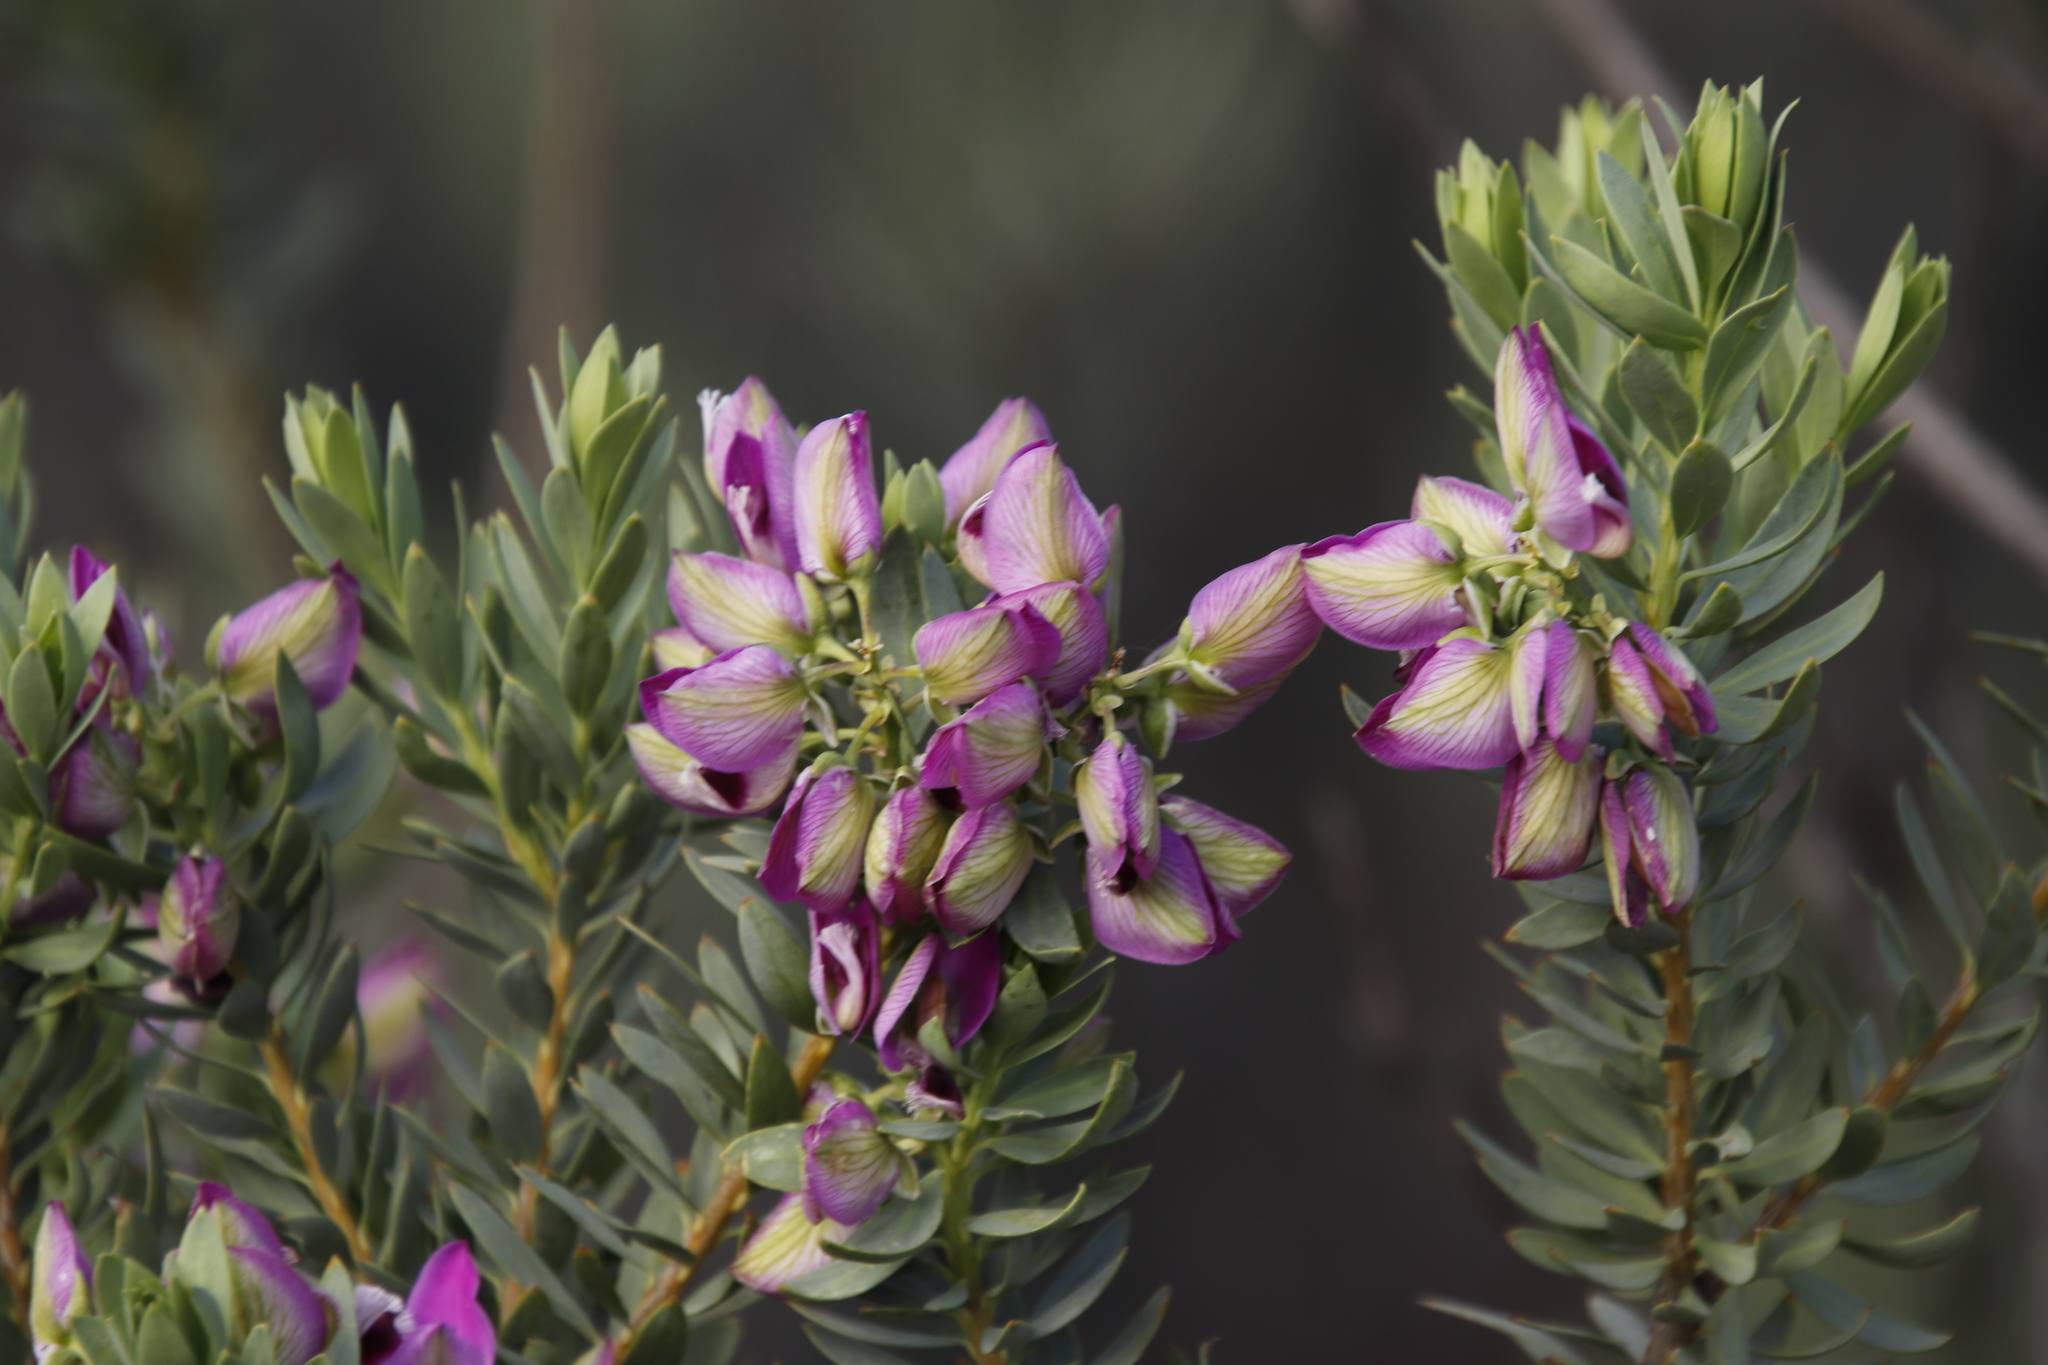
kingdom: Plantae
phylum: Tracheophyta
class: Magnoliopsida
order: Fabales
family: Polygalaceae
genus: Polygala
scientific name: Polygala myrtifolia
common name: Myrtle-leaf milkwort
